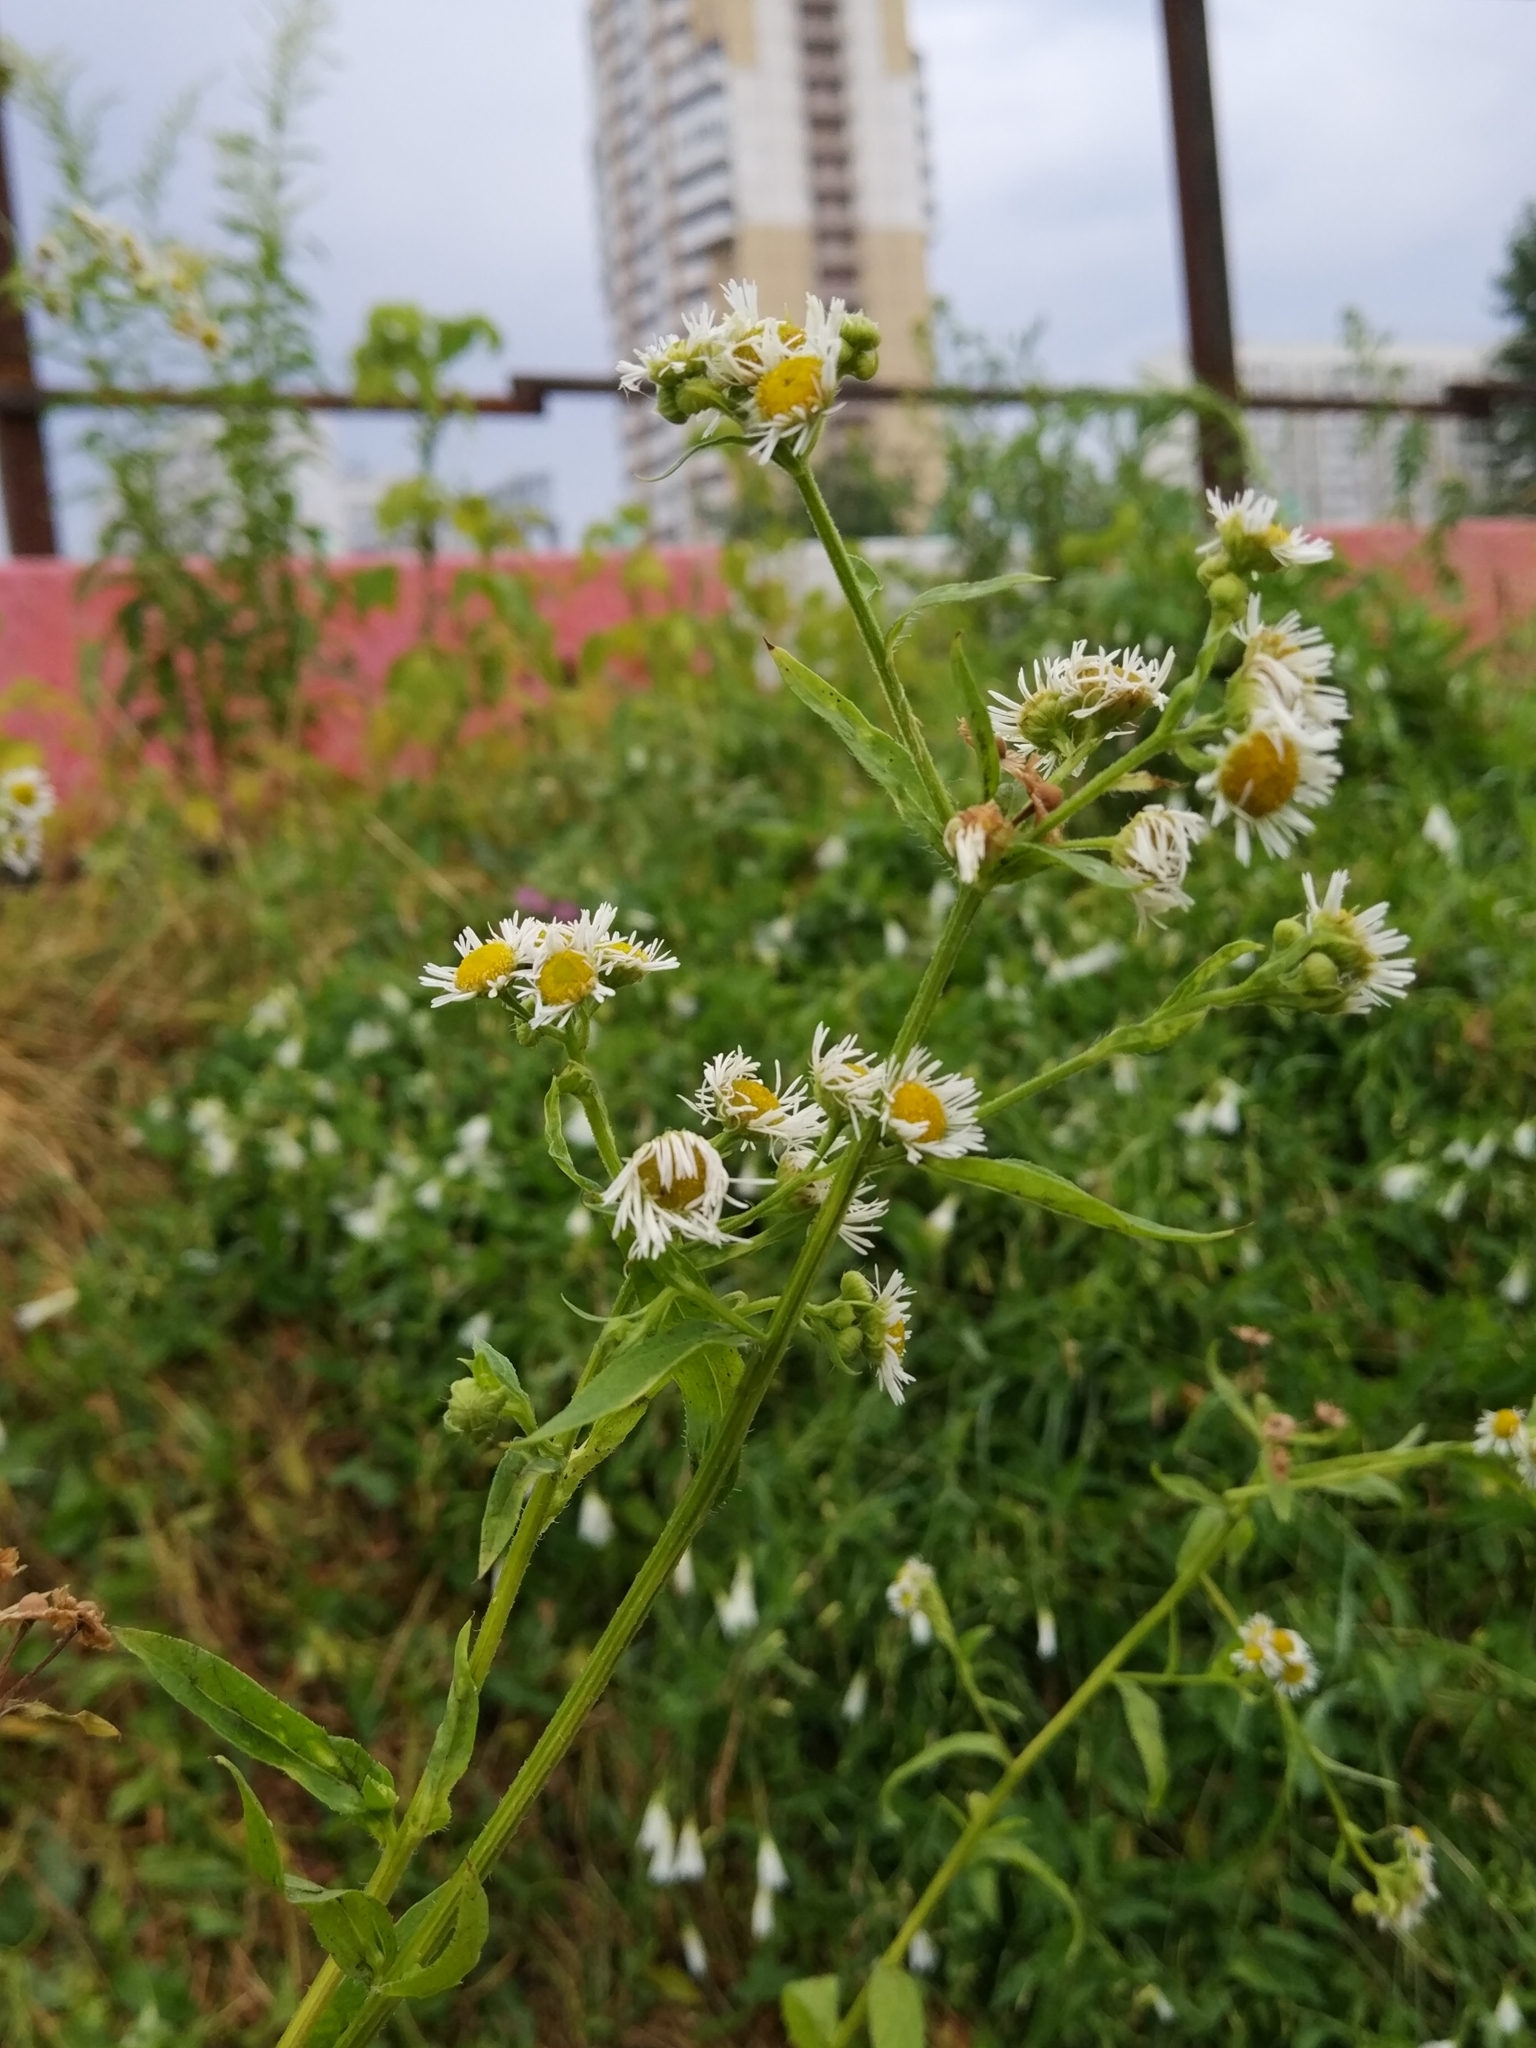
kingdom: Plantae
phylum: Tracheophyta
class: Magnoliopsida
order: Asterales
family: Asteraceae
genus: Erigeron
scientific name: Erigeron annuus
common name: Tall fleabane
